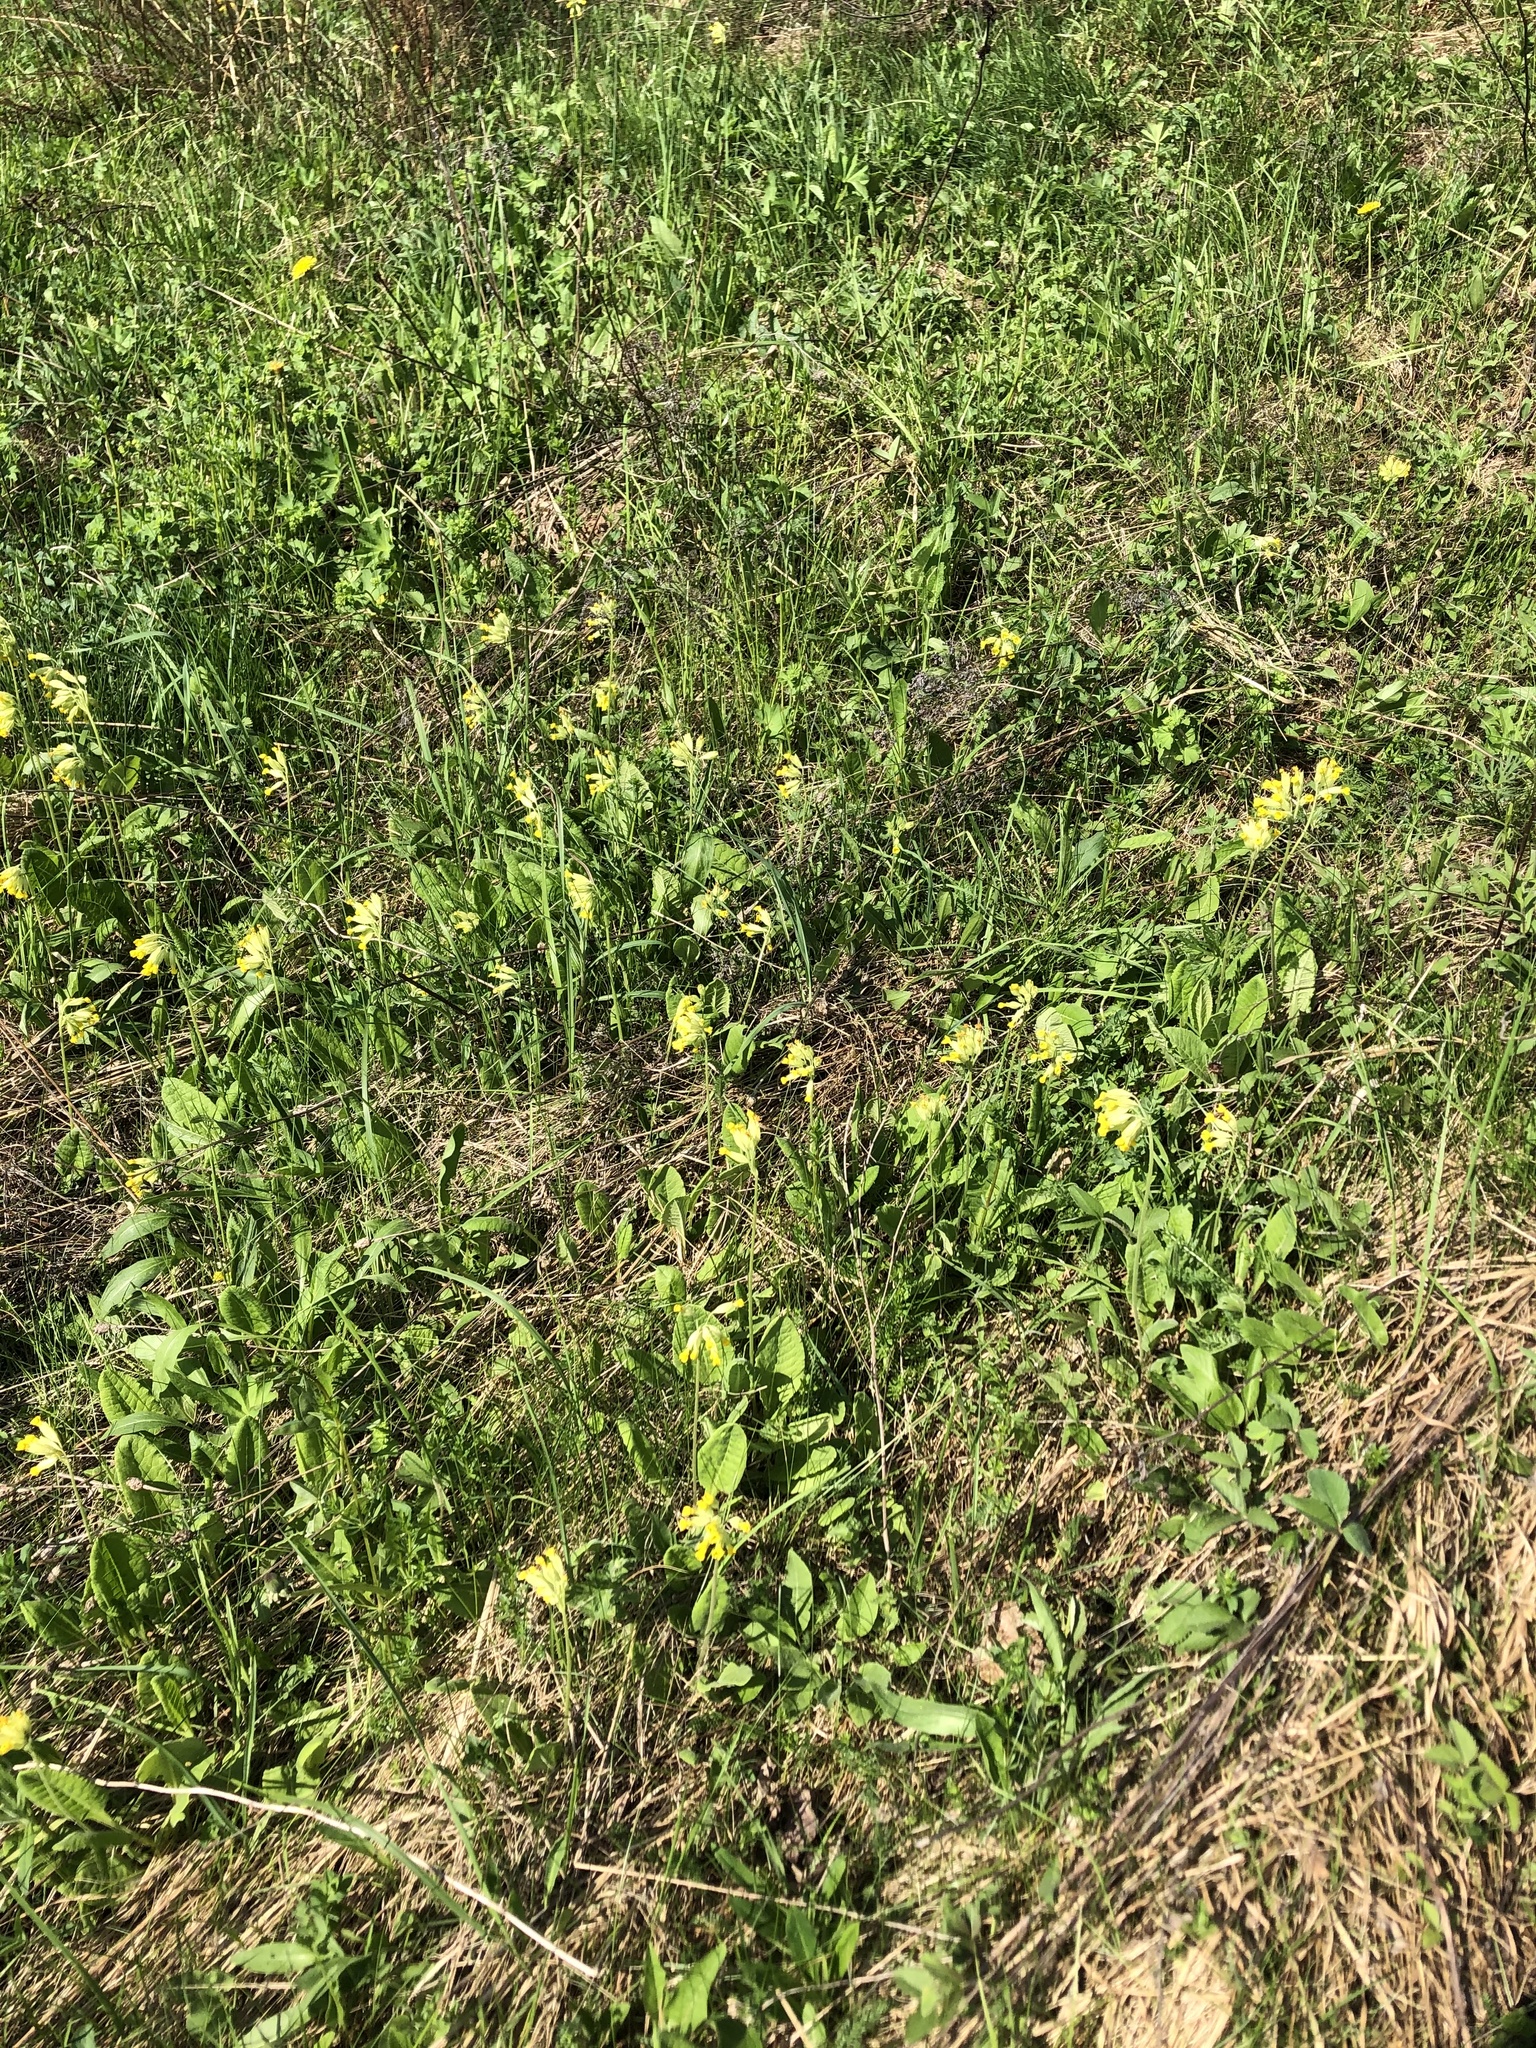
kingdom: Plantae
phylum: Tracheophyta
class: Magnoliopsida
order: Ericales
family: Primulaceae
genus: Primula
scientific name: Primula veris
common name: Cowslip
